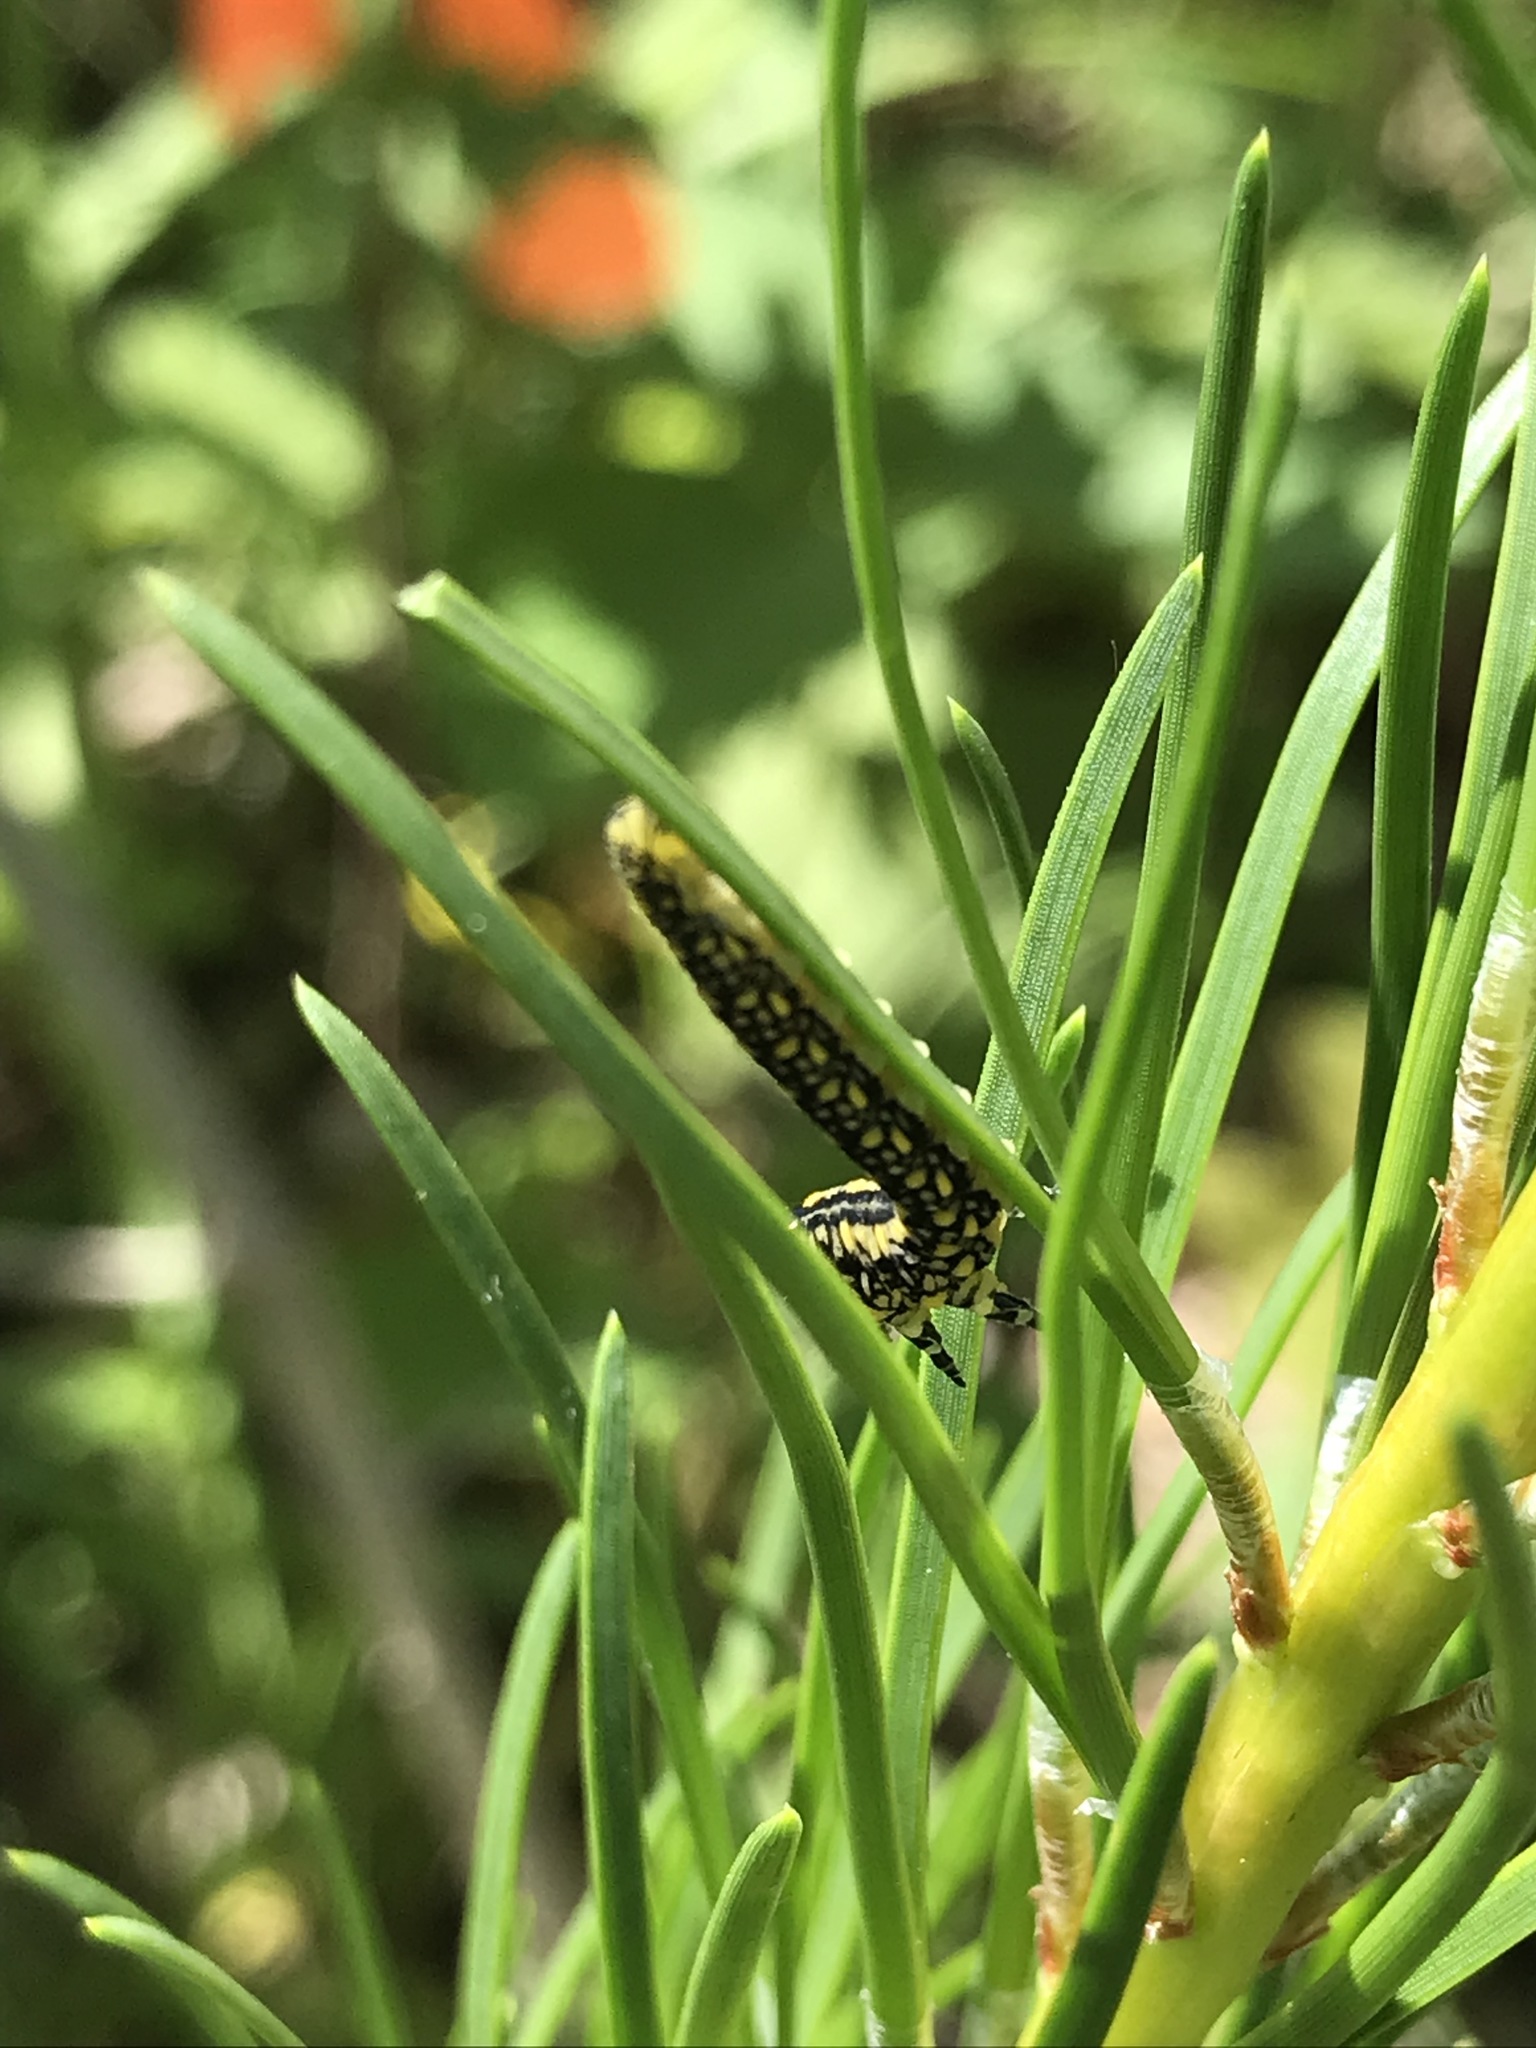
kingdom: Animalia
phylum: Arthropoda
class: Insecta
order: Hymenoptera
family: Diprionidae
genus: Diprion
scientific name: Diprion similis
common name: Pine sawfly
